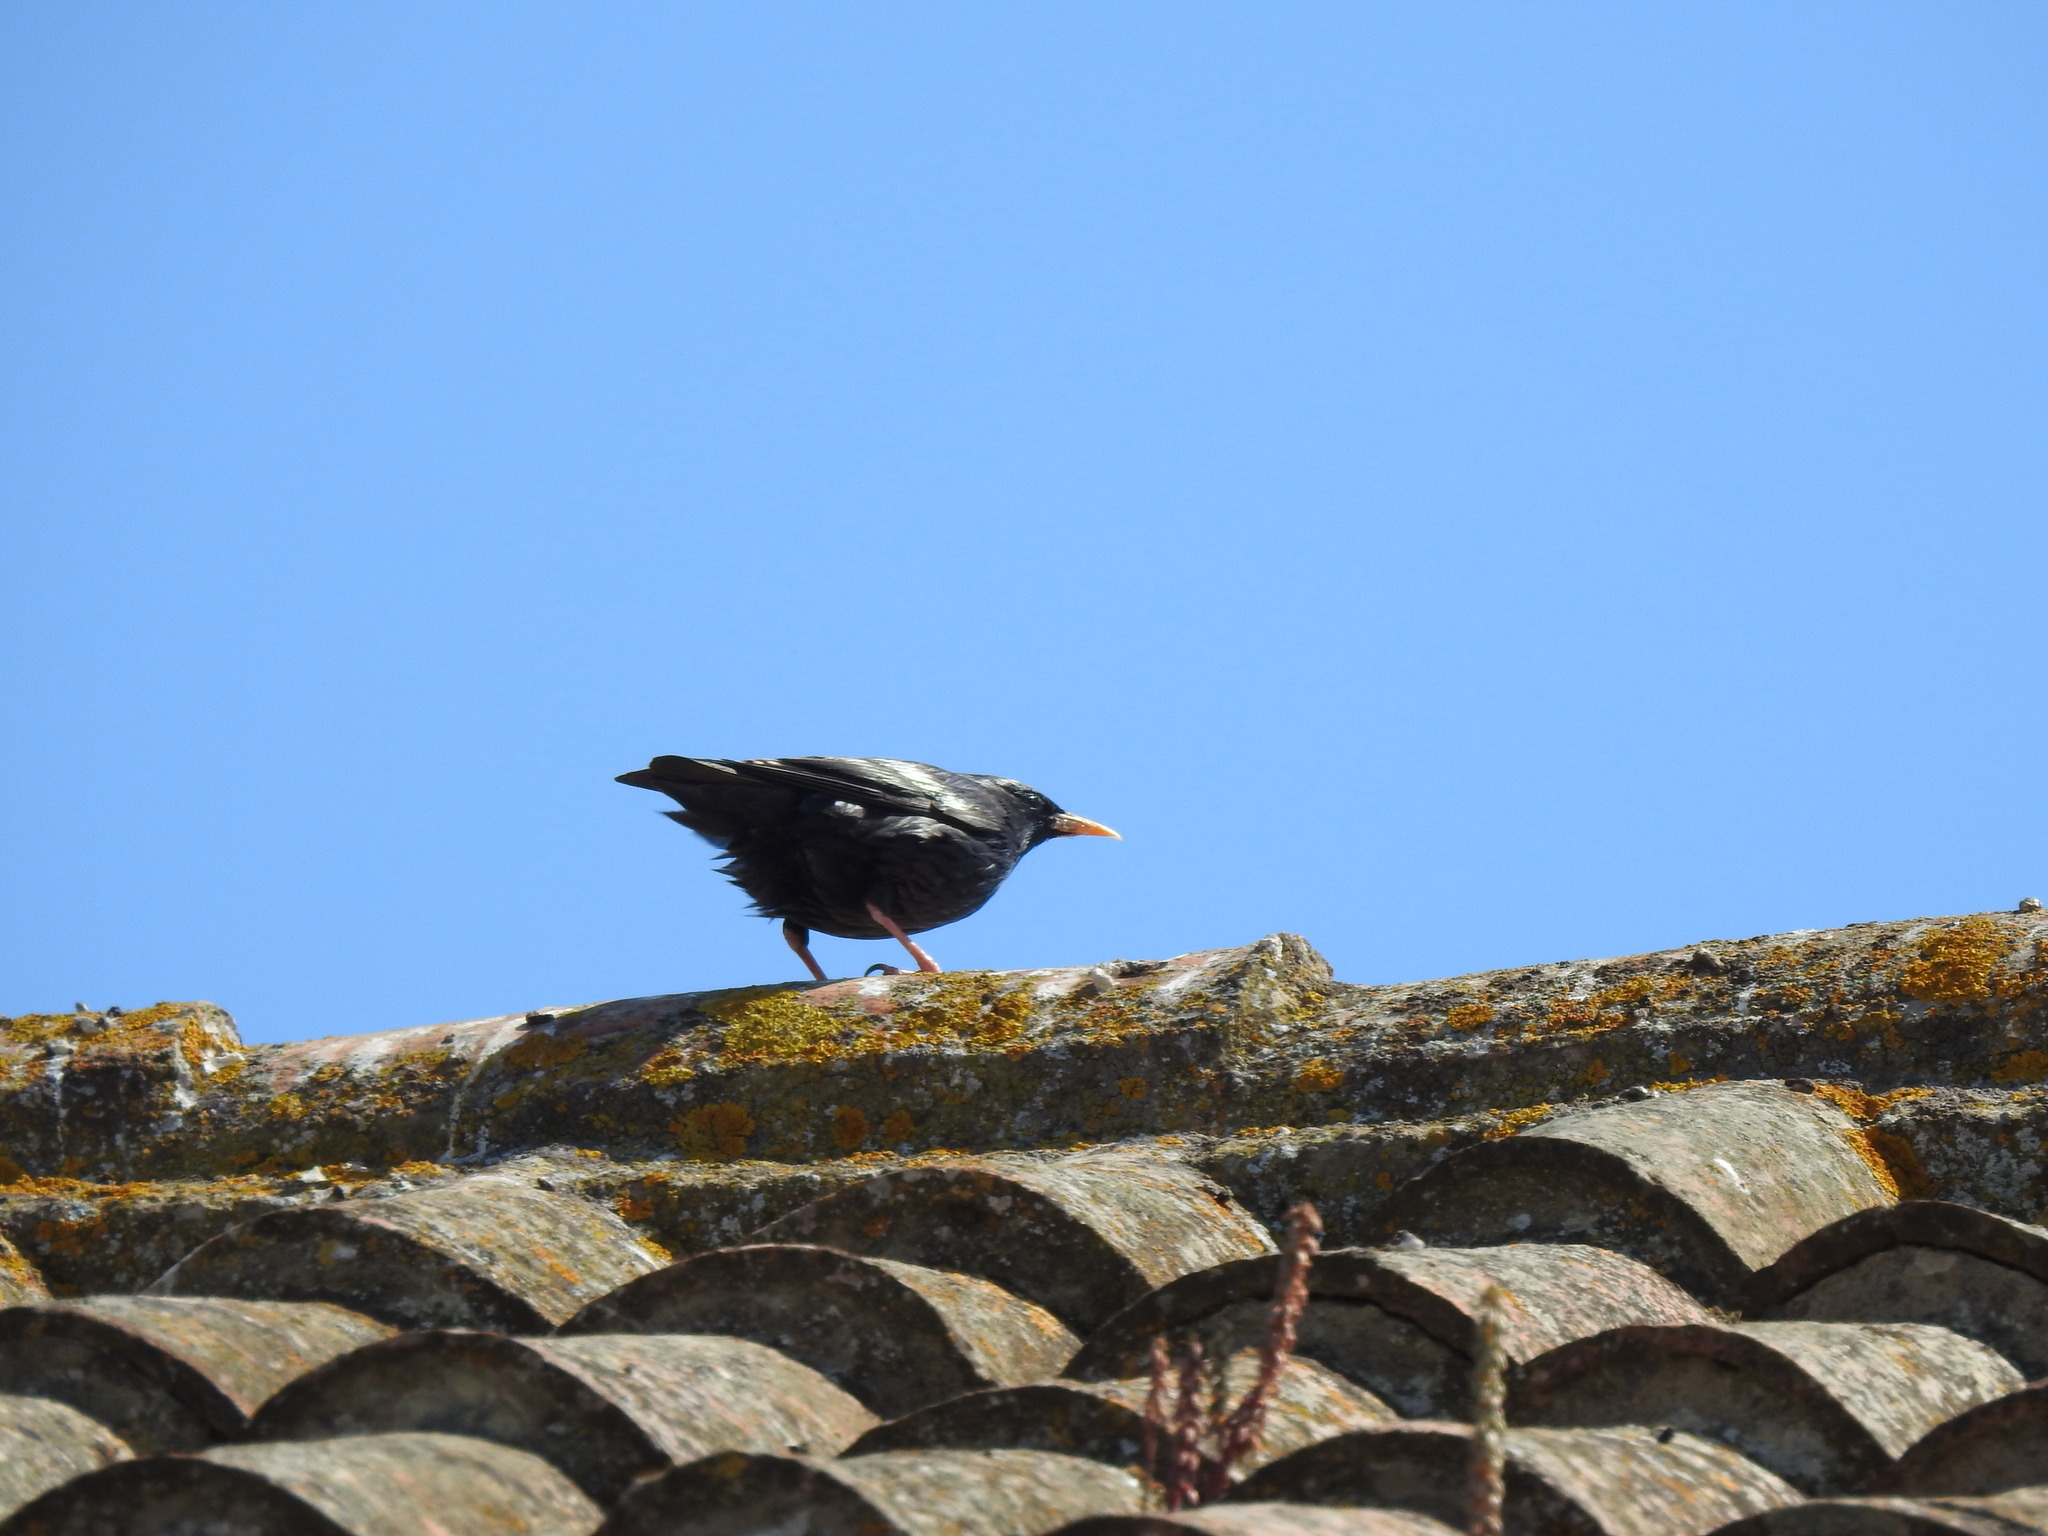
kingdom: Animalia
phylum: Chordata
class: Aves
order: Passeriformes
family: Sturnidae
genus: Sturnus
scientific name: Sturnus unicolor
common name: Spotless starling
